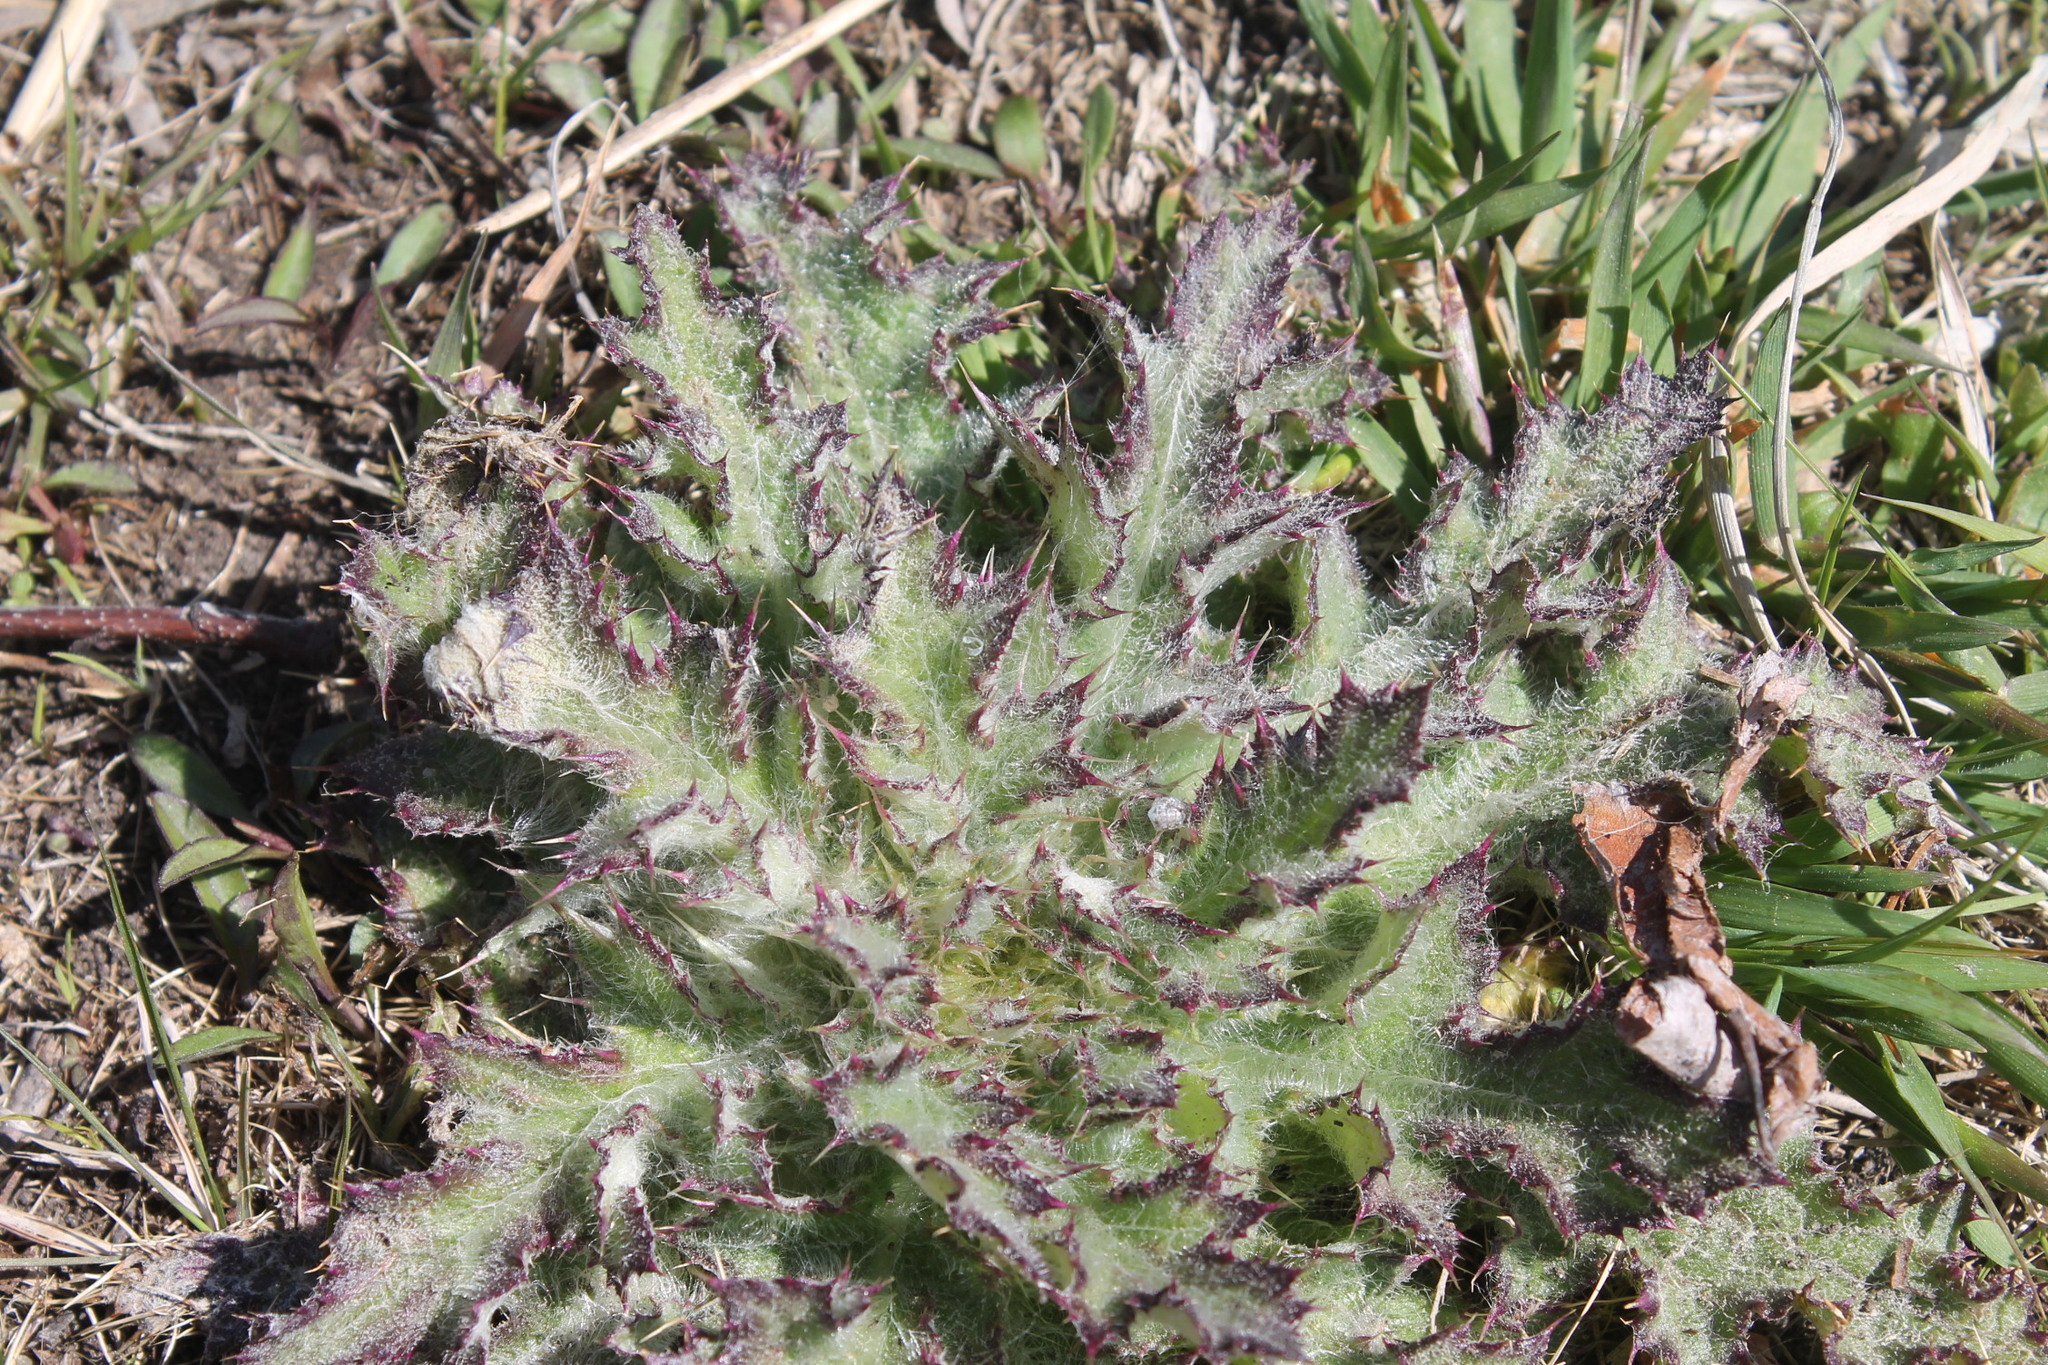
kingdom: Plantae
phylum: Tracheophyta
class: Magnoliopsida
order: Asterales
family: Asteraceae
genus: Cirsium
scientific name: Cirsium horridulum
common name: Bristly thistle
